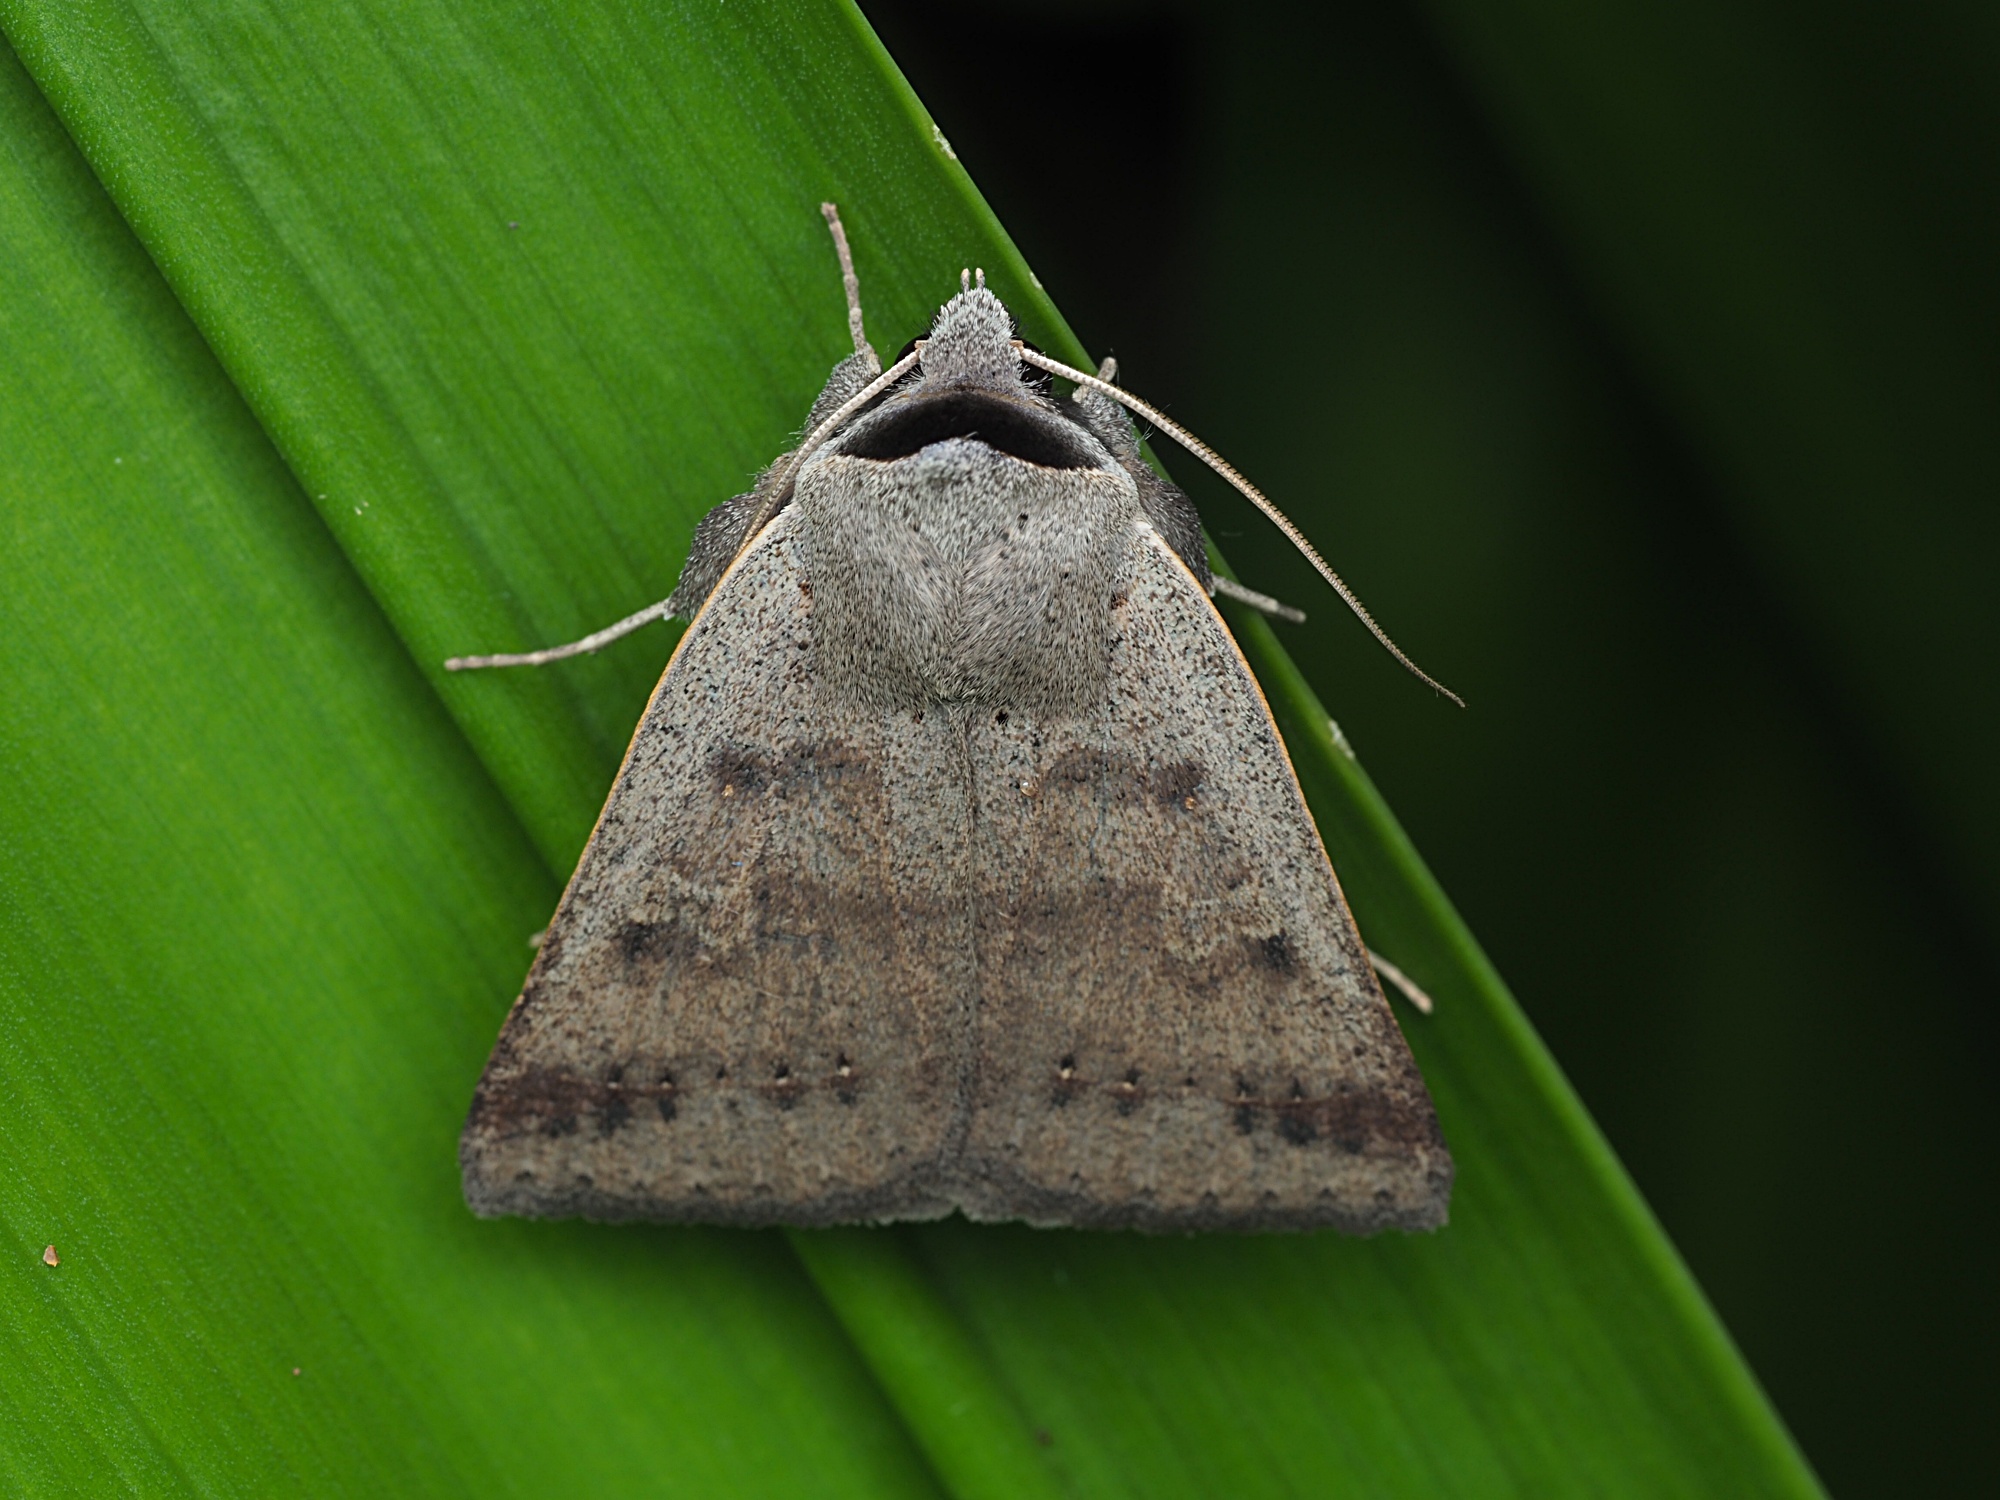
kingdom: Animalia
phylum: Arthropoda
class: Insecta
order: Lepidoptera
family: Erebidae
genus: Pantydia
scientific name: Pantydia sparsa
